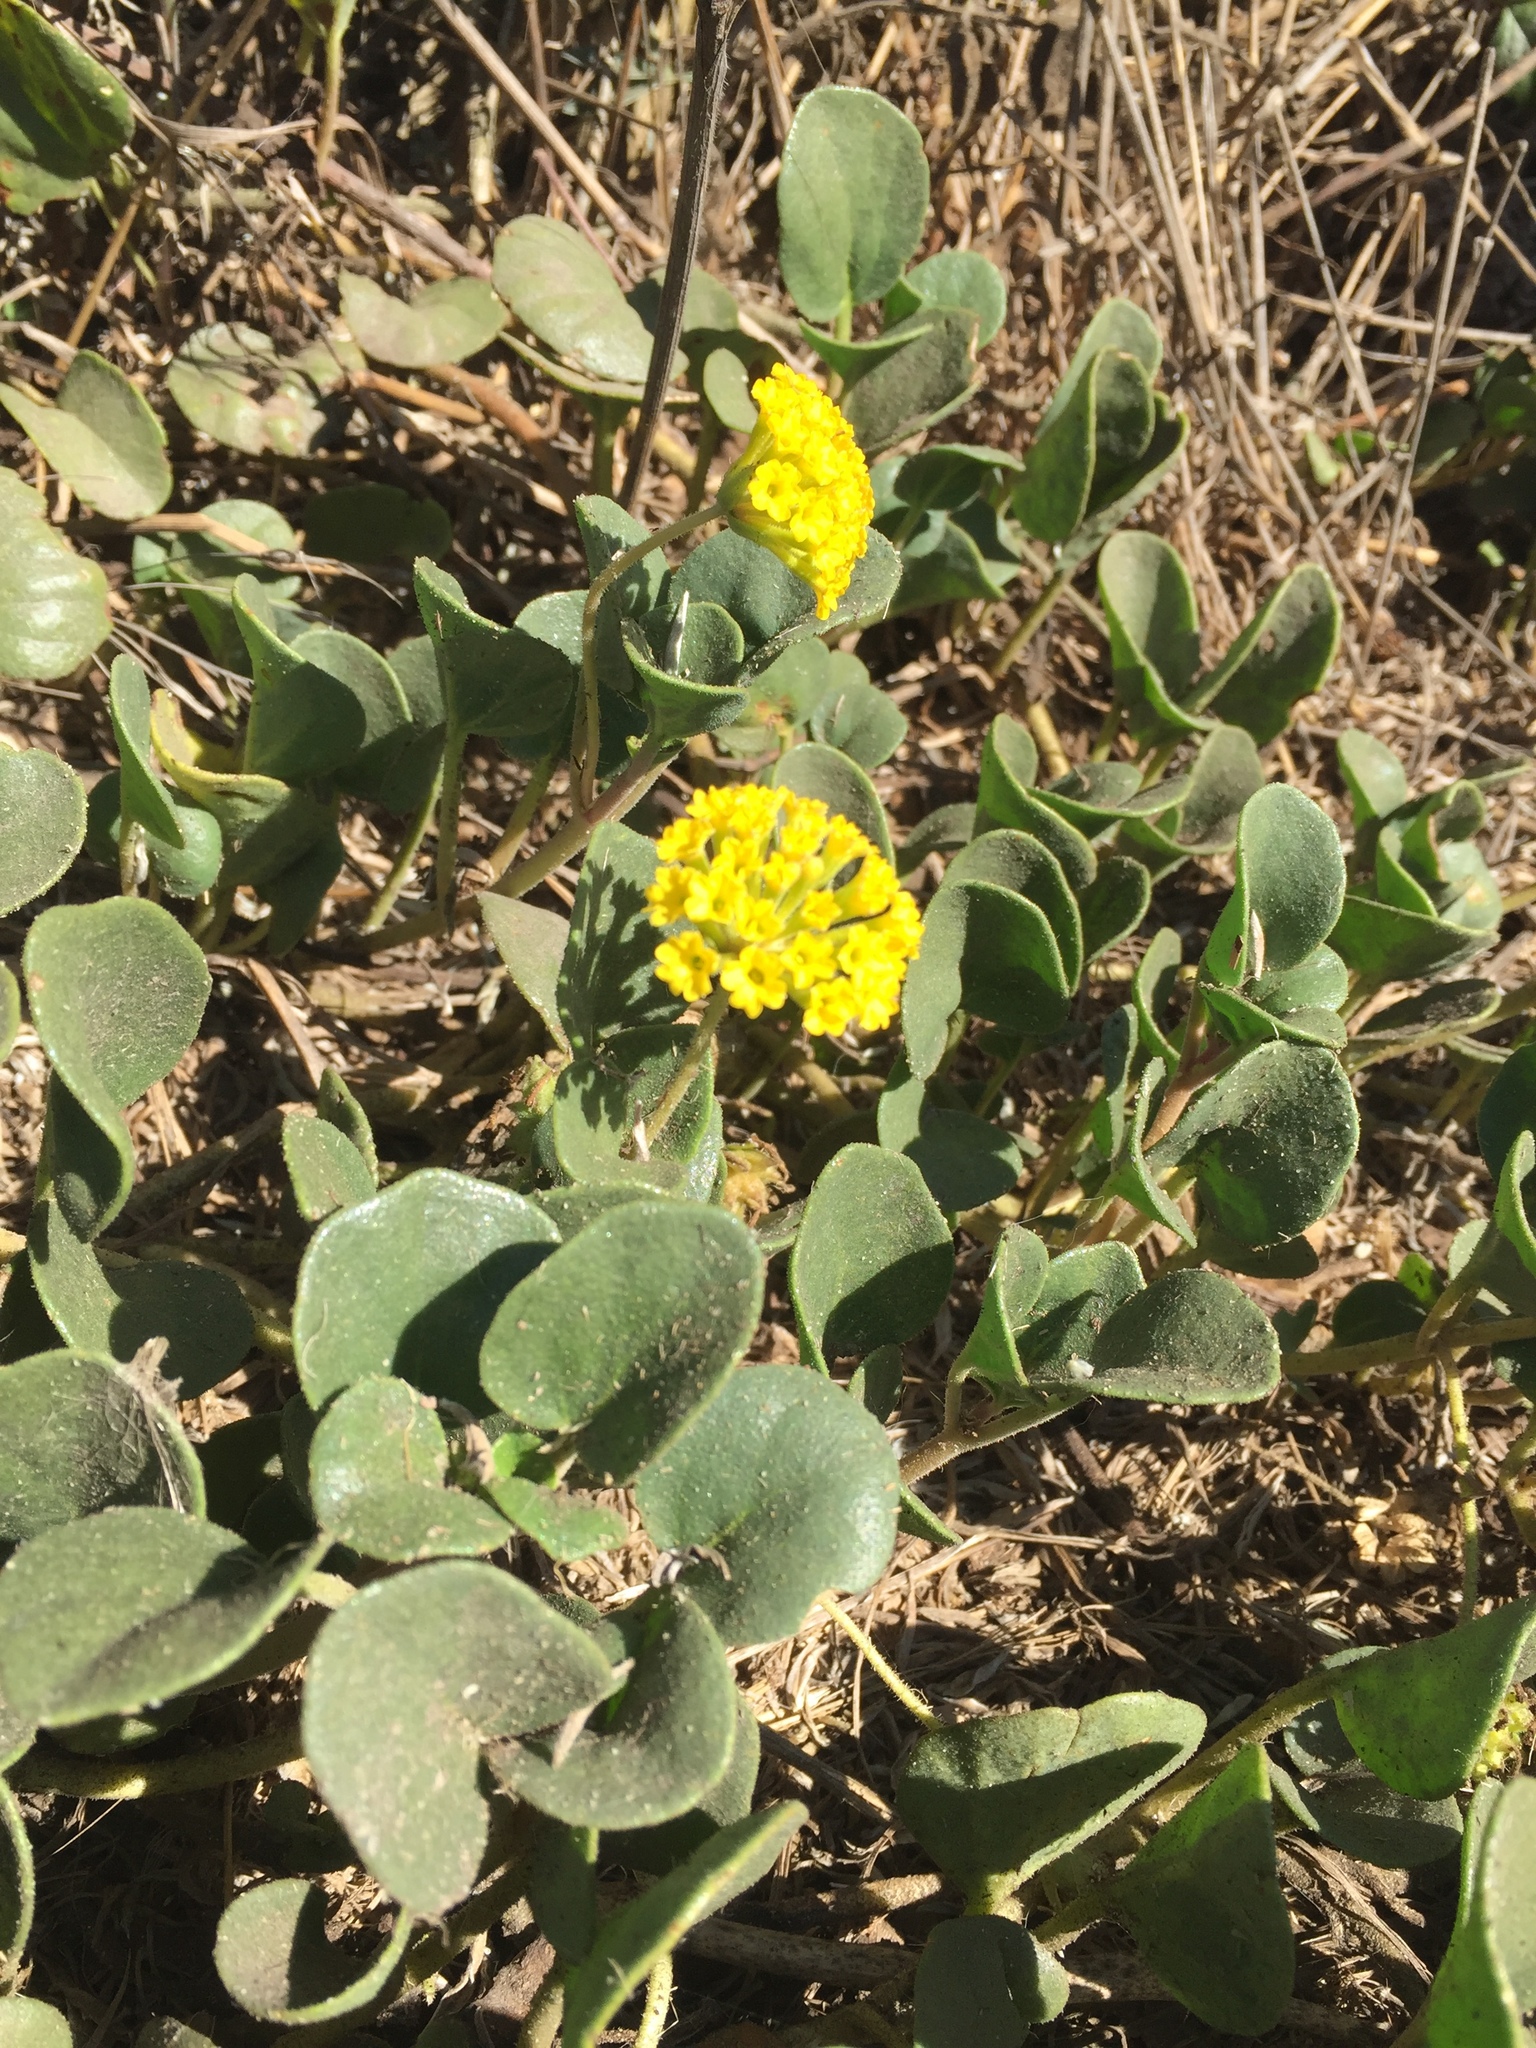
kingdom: Plantae
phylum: Tracheophyta
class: Magnoliopsida
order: Caryophyllales
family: Nyctaginaceae
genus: Abronia
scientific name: Abronia latifolia
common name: Yellow sand-verbena
